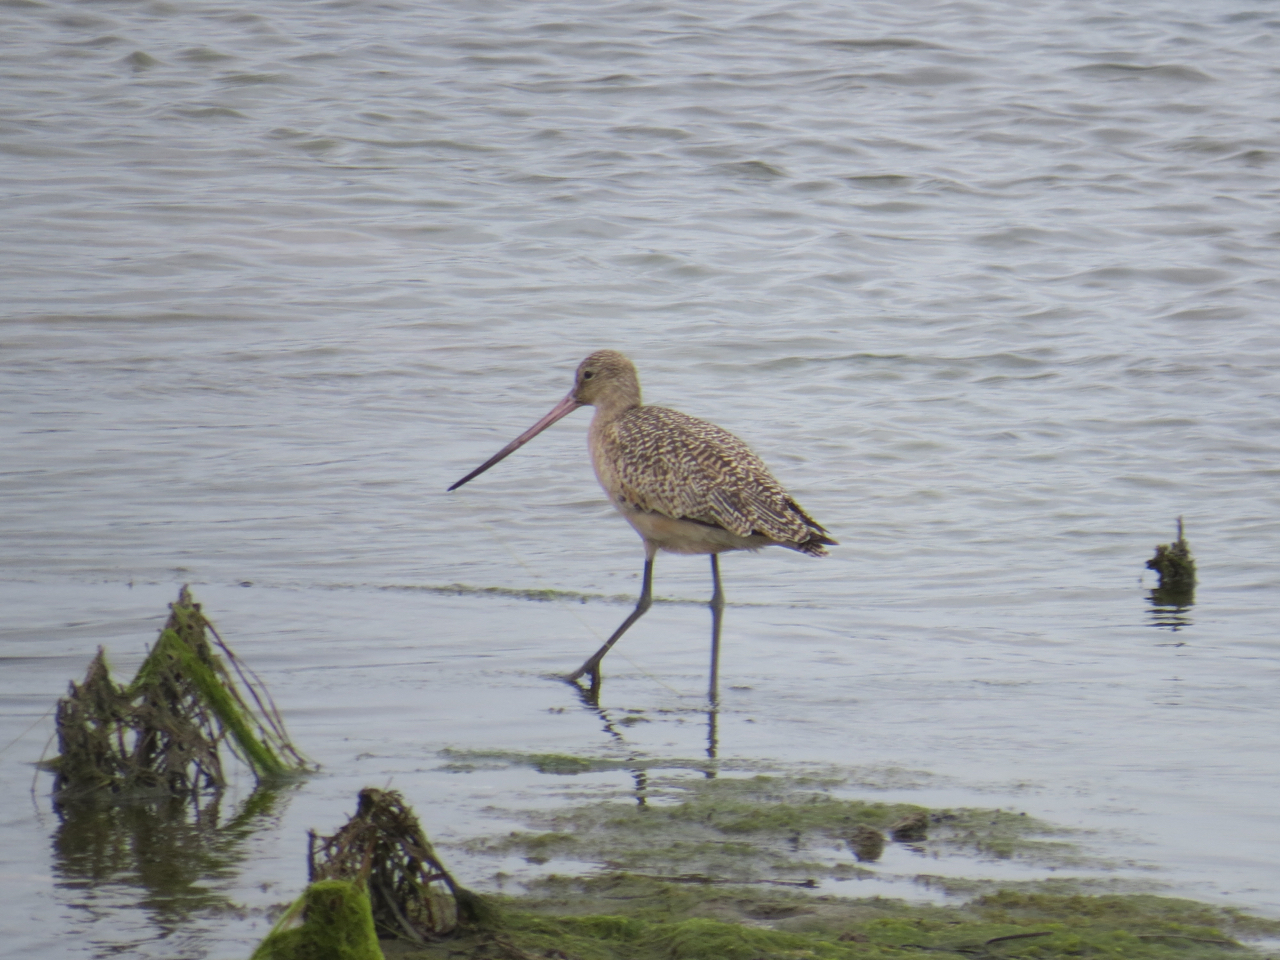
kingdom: Animalia
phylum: Chordata
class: Aves
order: Charadriiformes
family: Scolopacidae
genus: Limosa
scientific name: Limosa fedoa
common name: Marbled godwit
